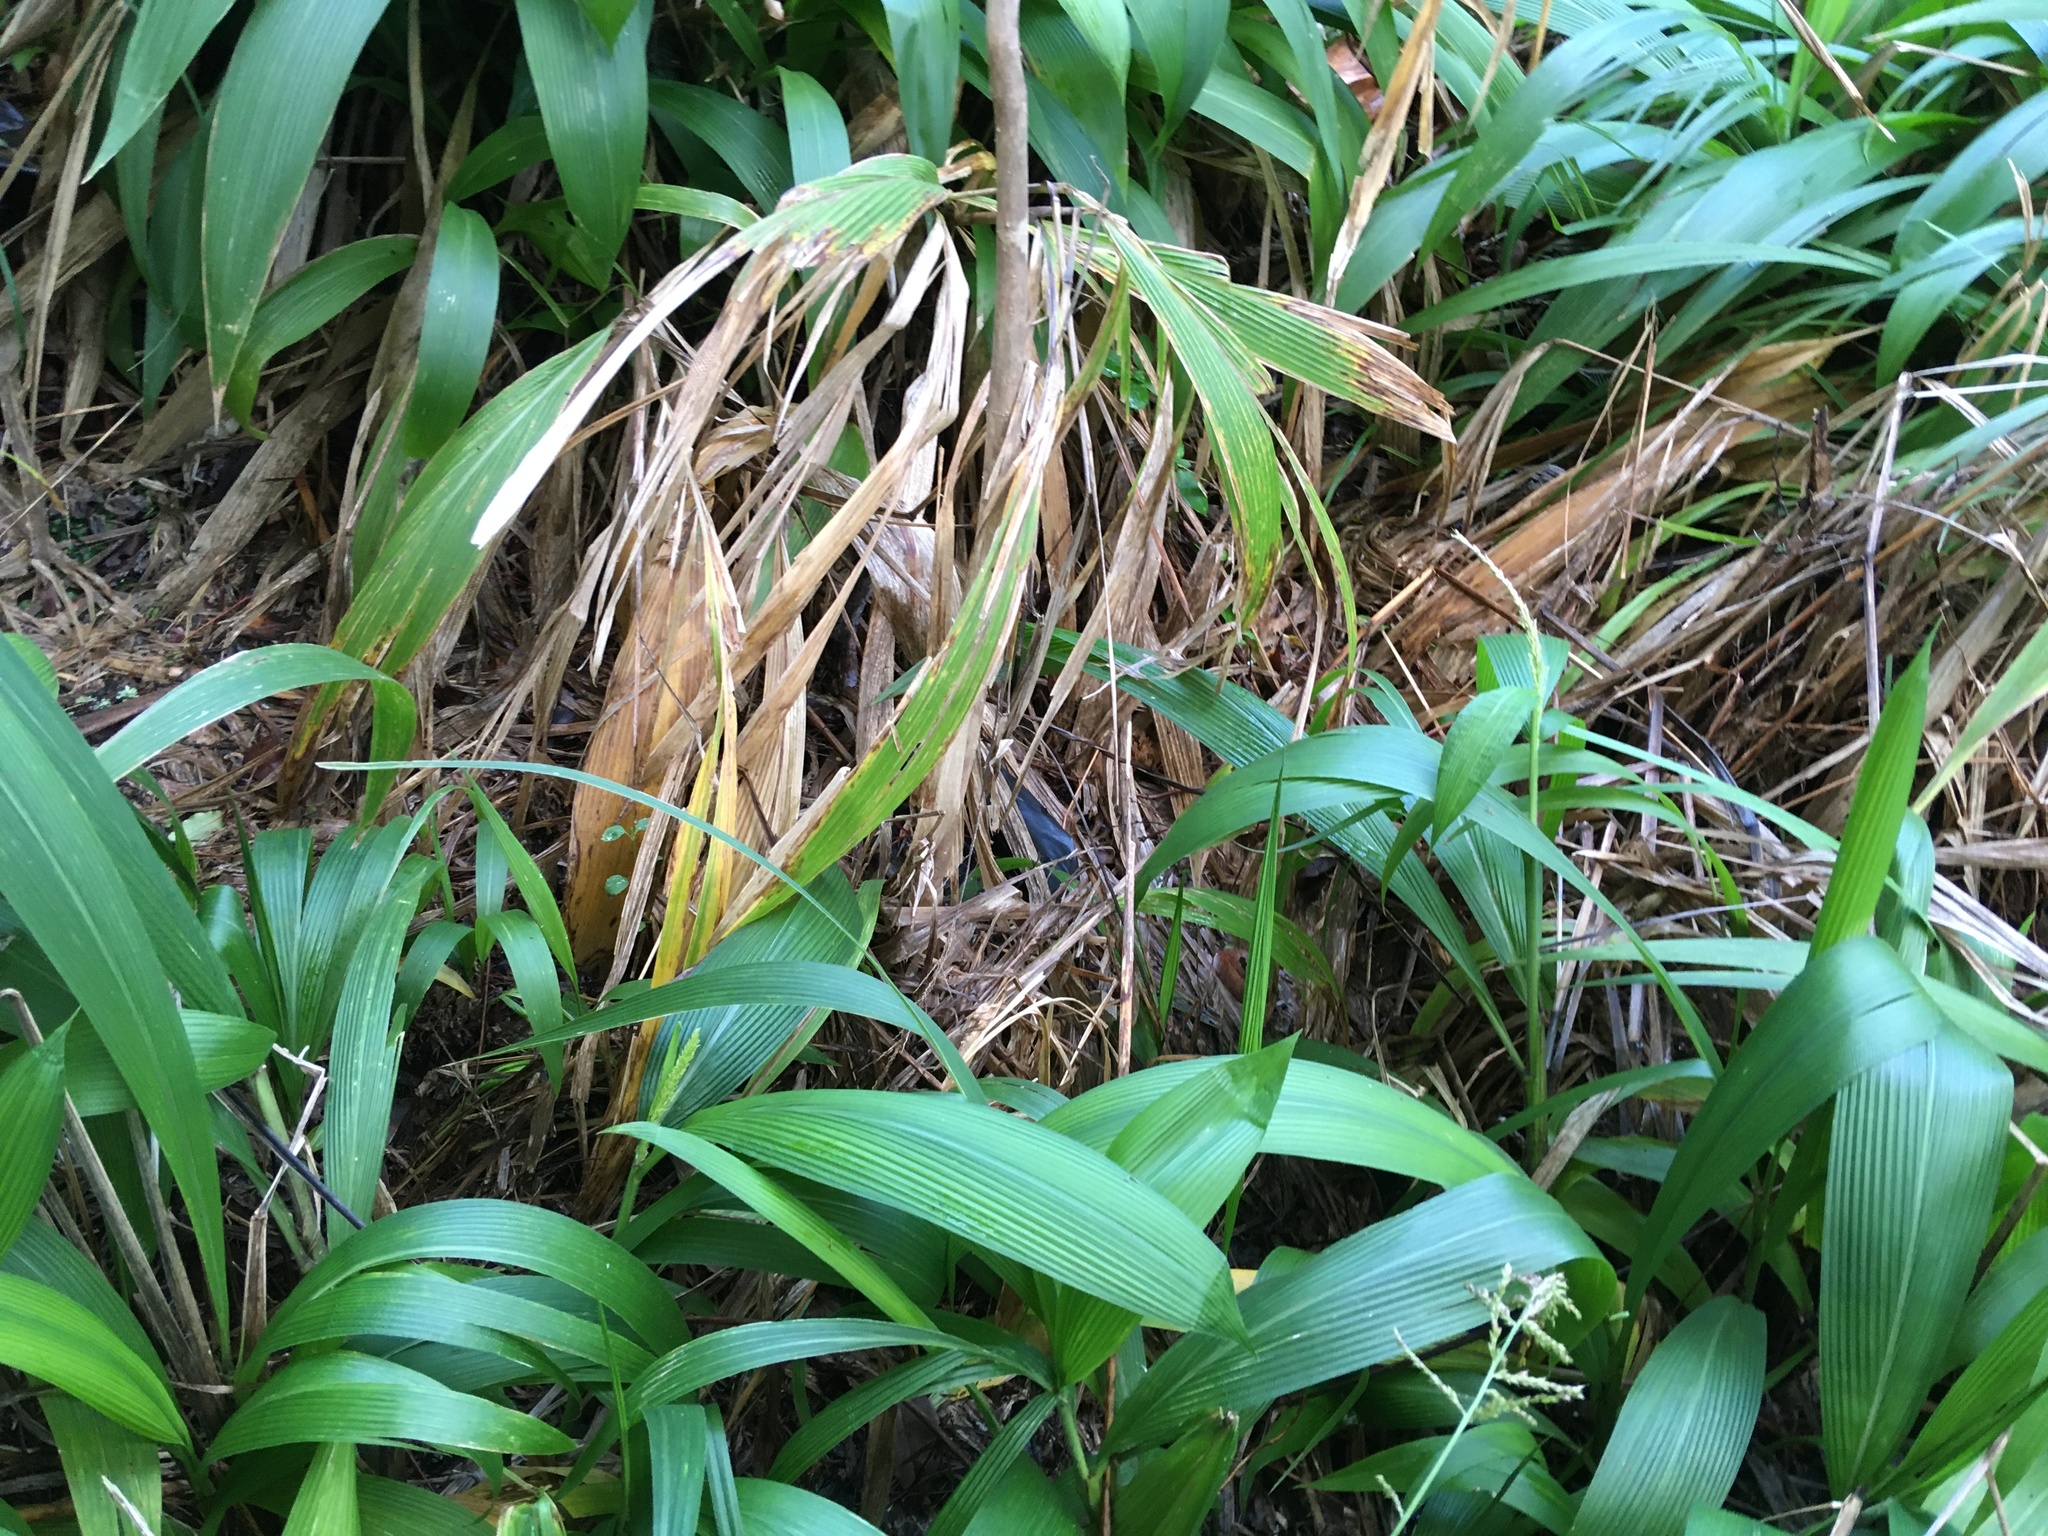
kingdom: Plantae
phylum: Tracheophyta
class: Liliopsida
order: Poales
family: Poaceae
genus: Setaria
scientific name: Setaria palmifolia
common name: Broadleaved bristlegrass
